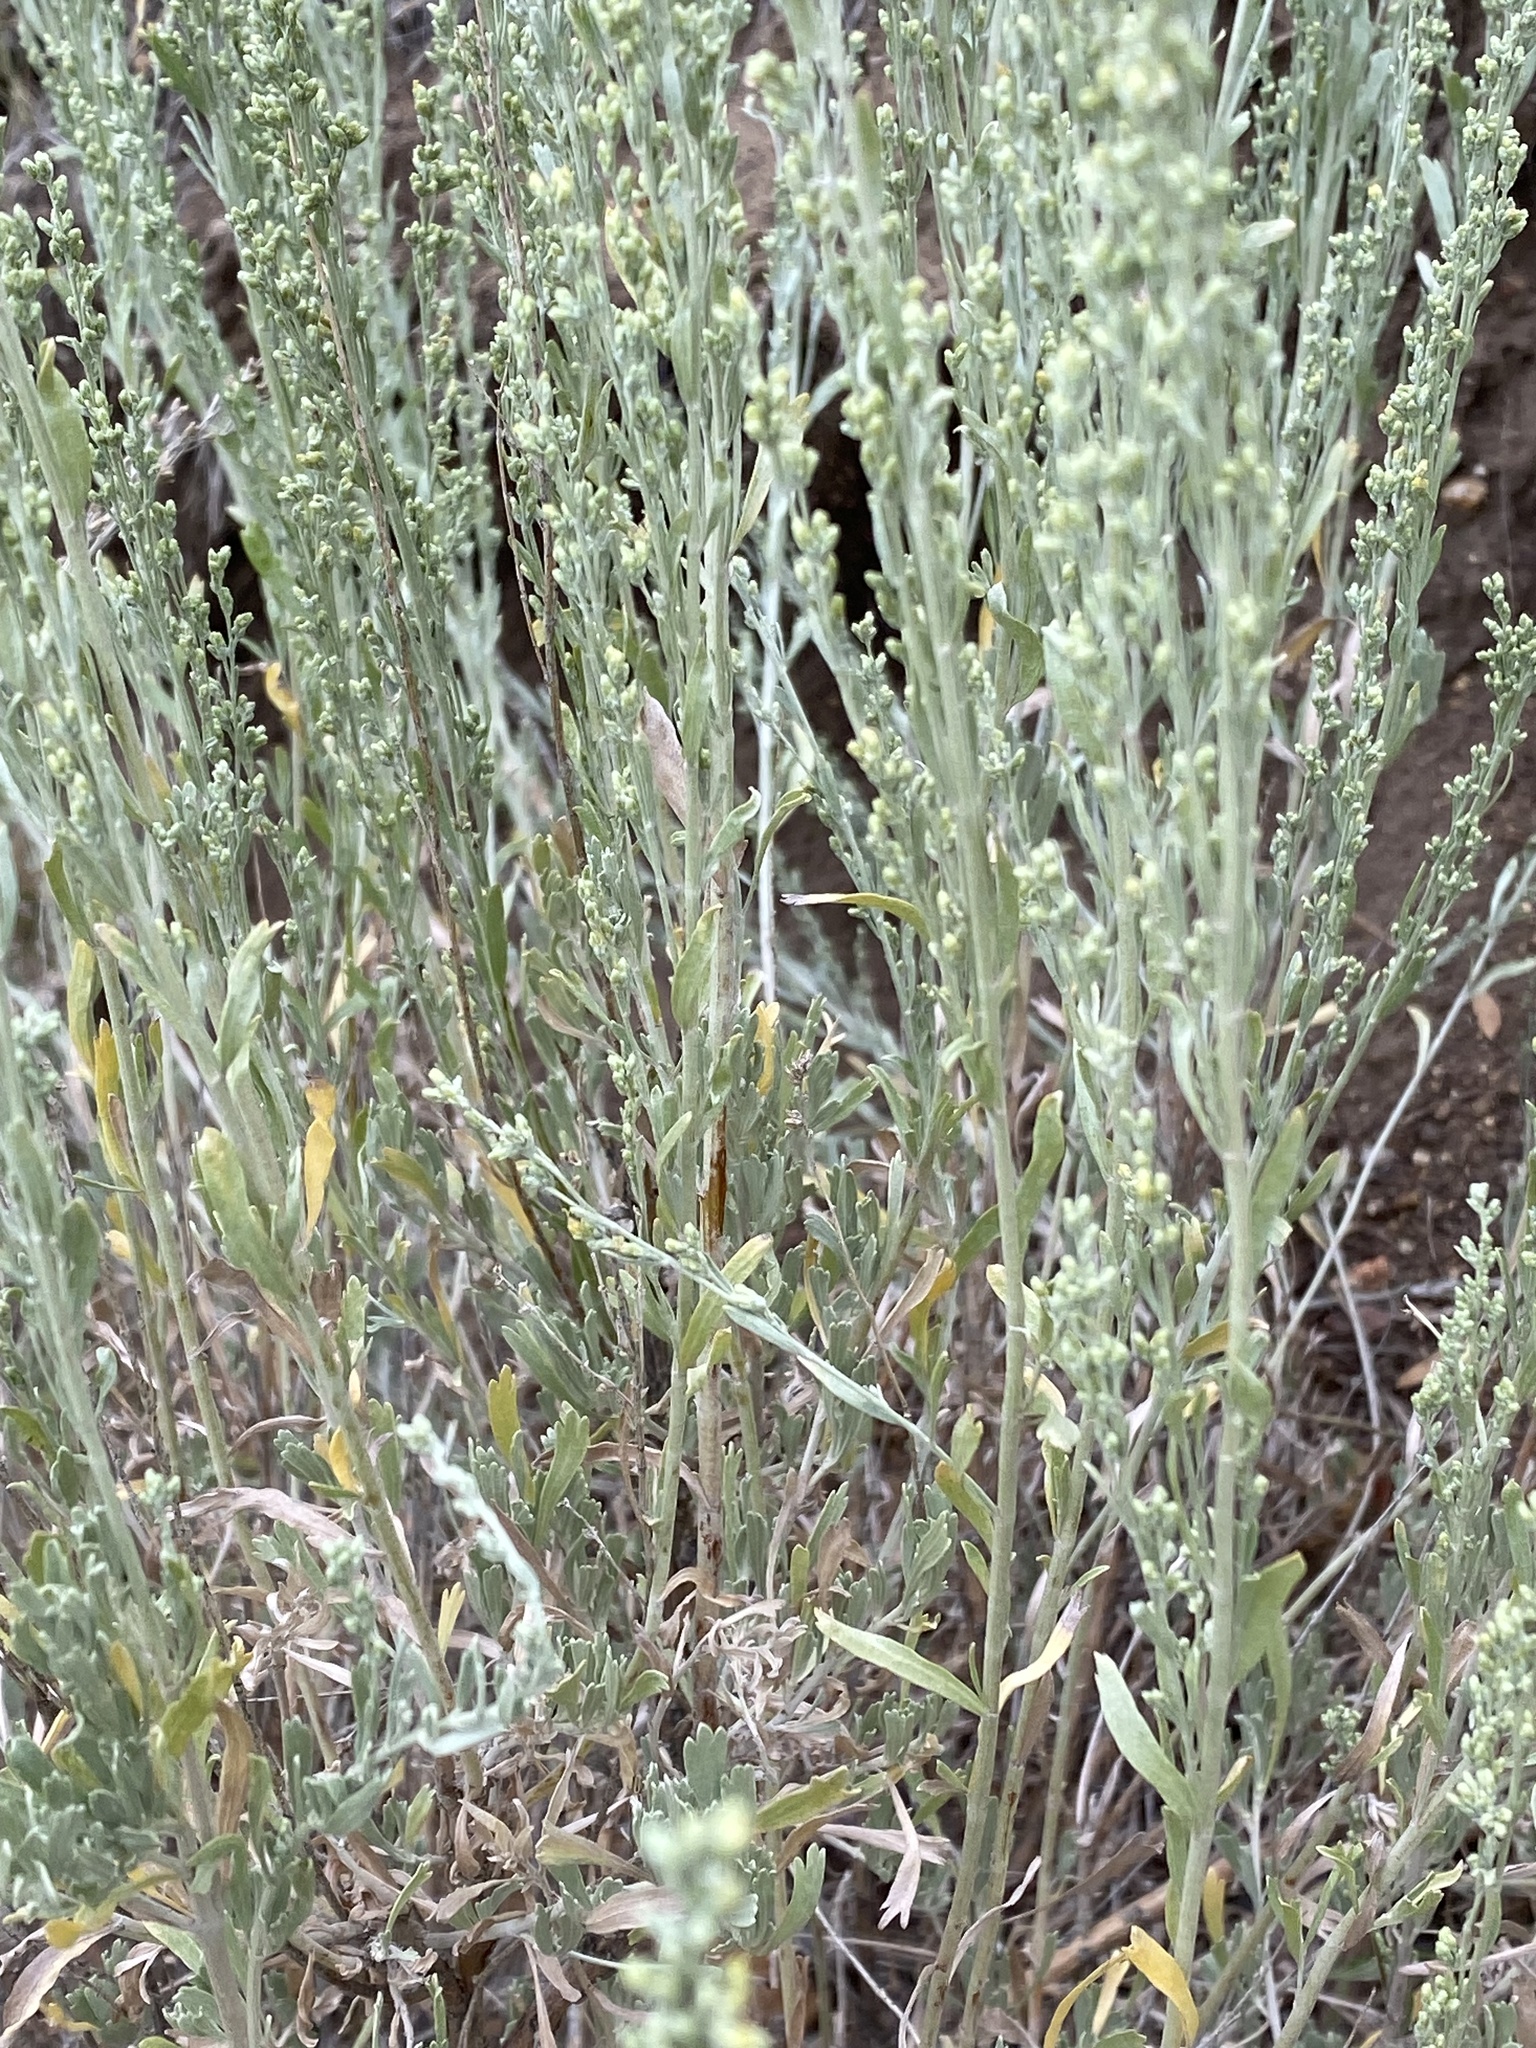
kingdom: Plantae
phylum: Tracheophyta
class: Magnoliopsida
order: Asterales
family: Asteraceae
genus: Artemisia
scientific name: Artemisia tridentata
